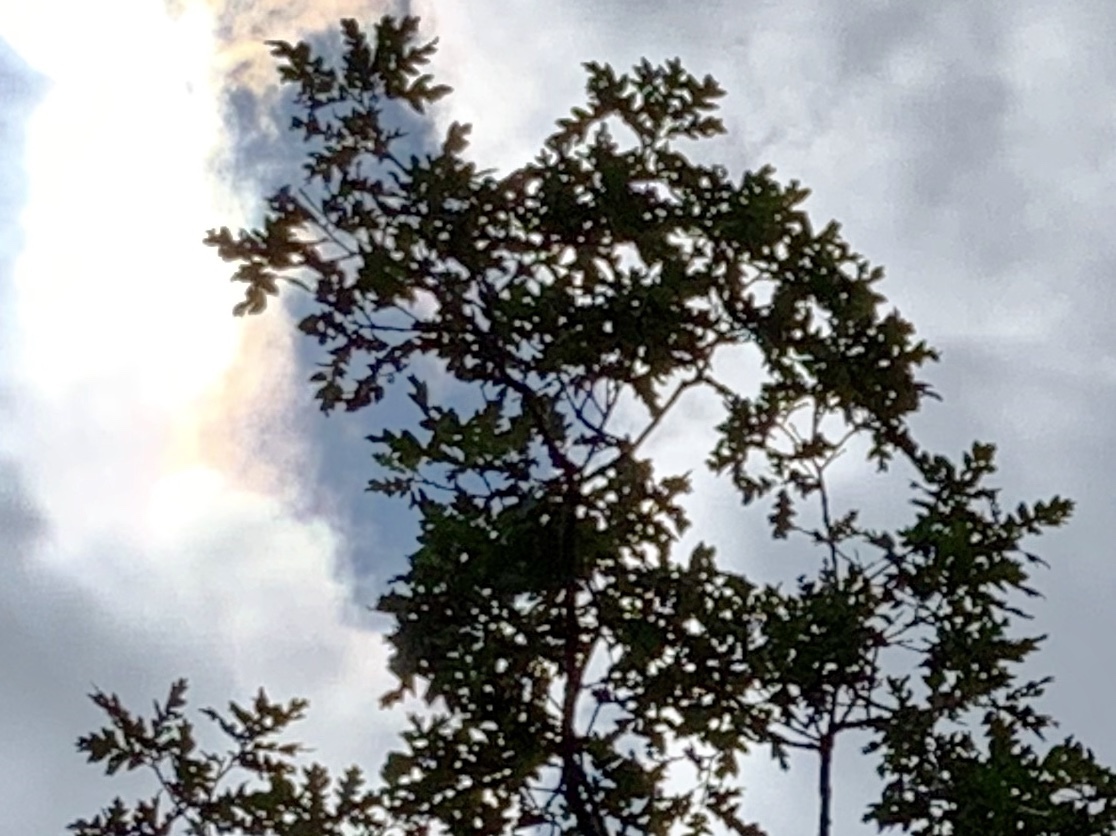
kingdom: Plantae
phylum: Tracheophyta
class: Magnoliopsida
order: Fagales
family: Fagaceae
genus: Quercus
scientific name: Quercus gambelii
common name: Gambel oak
